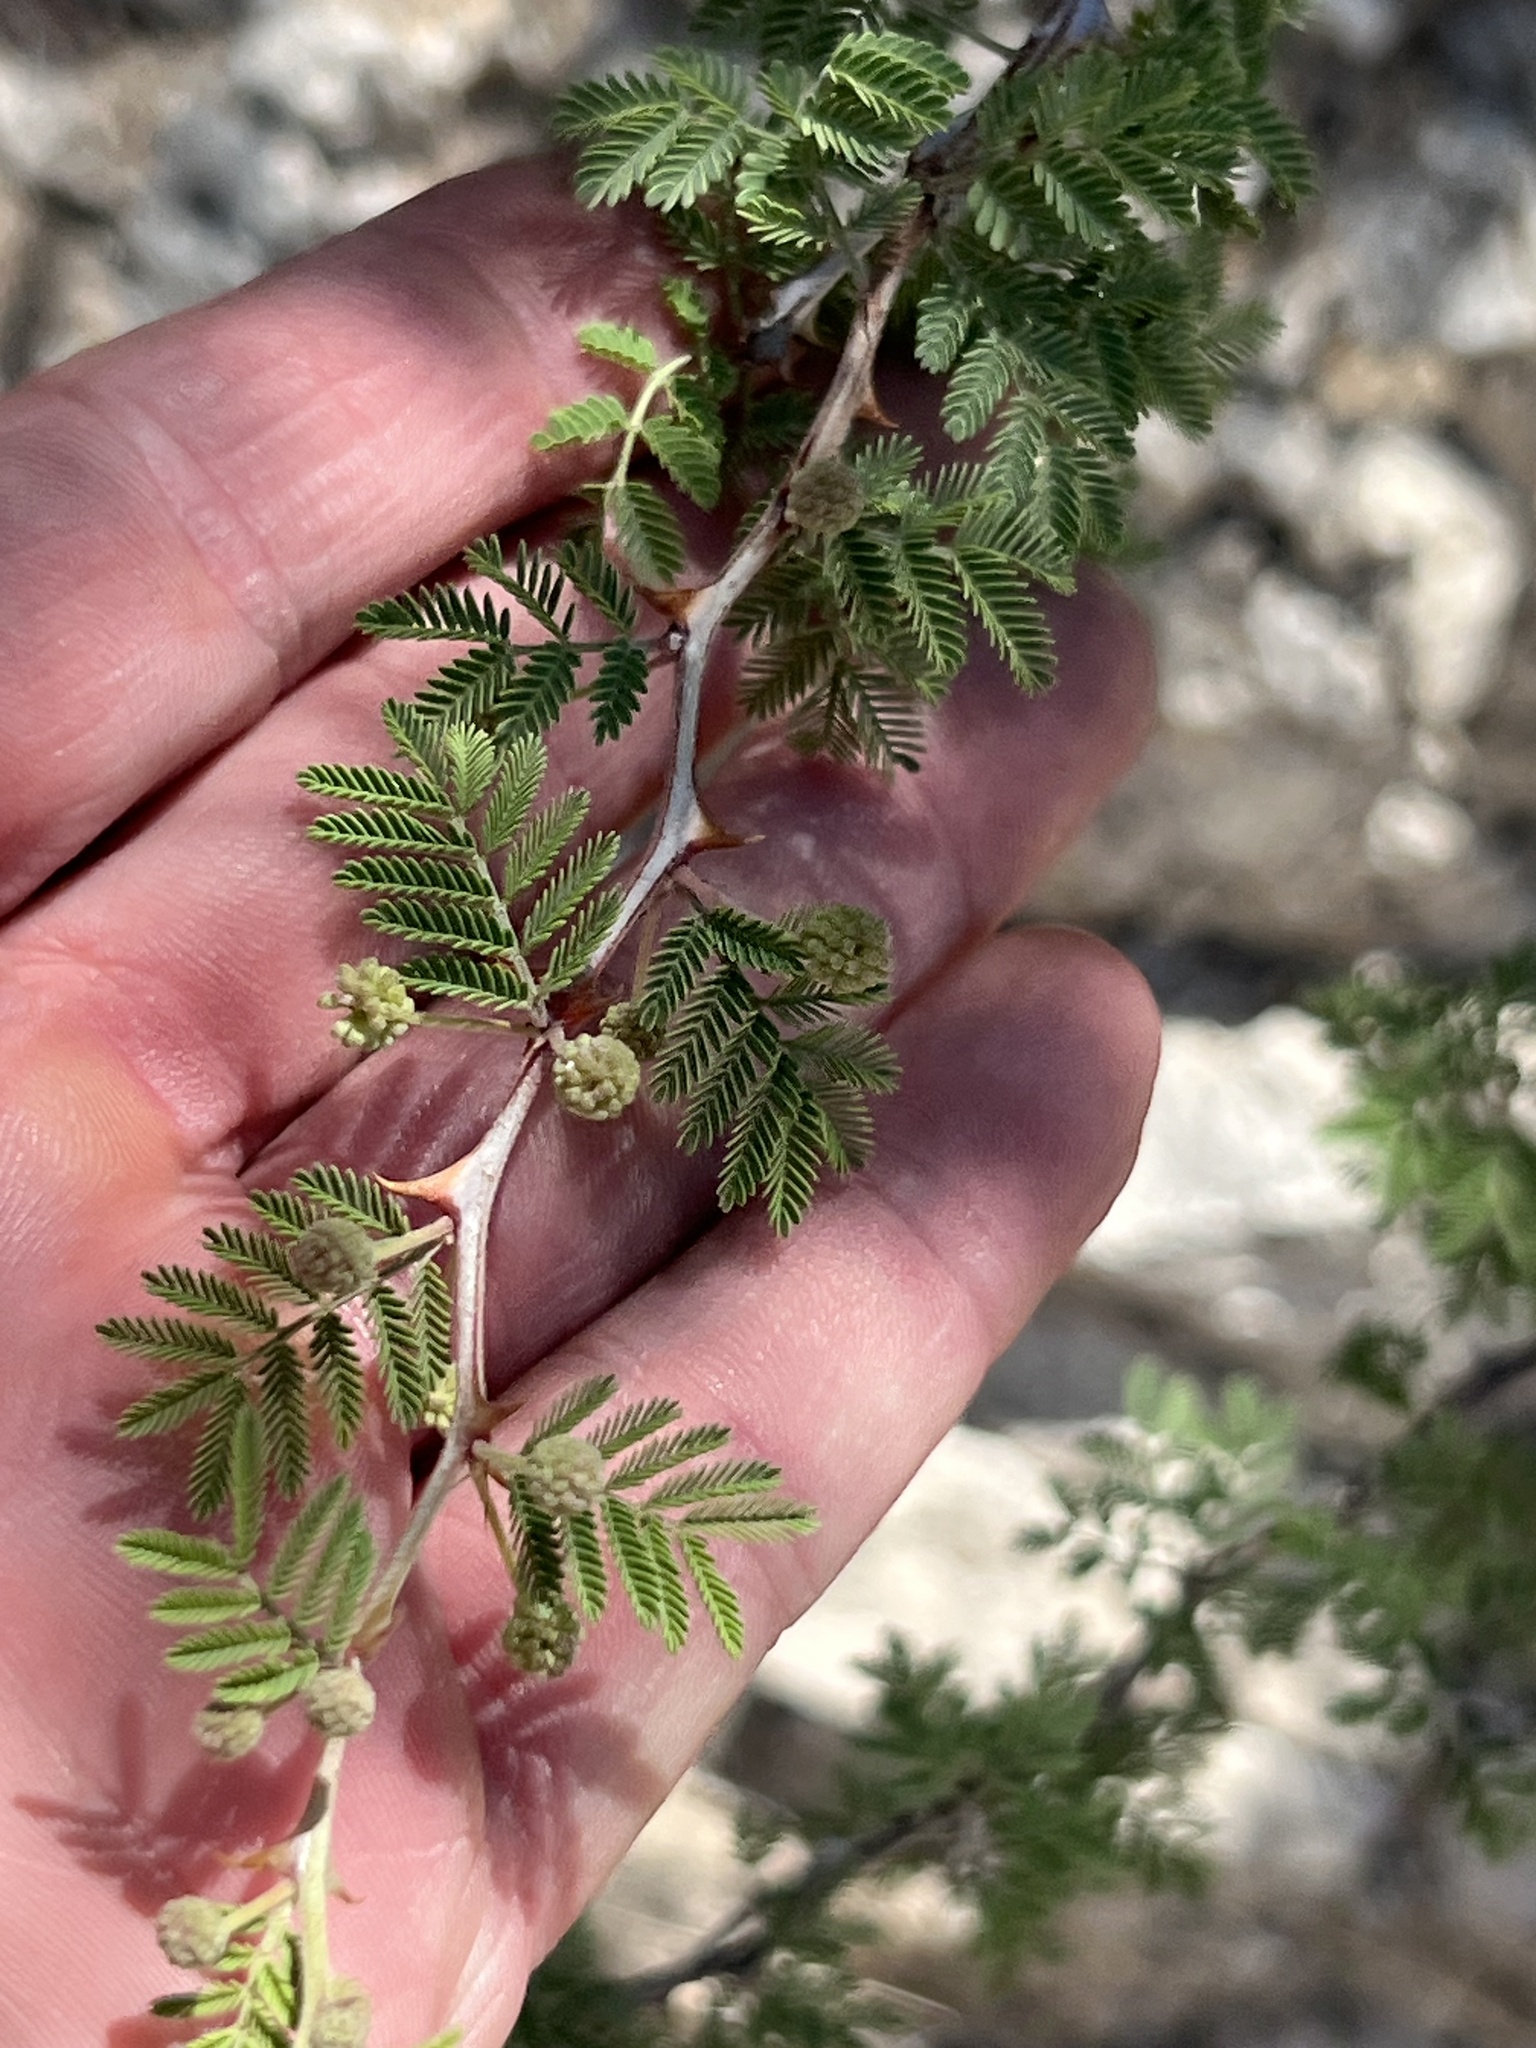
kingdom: Plantae
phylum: Tracheophyta
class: Magnoliopsida
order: Fabales
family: Fabaceae
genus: Mimosa
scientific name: Mimosa biuncifera
